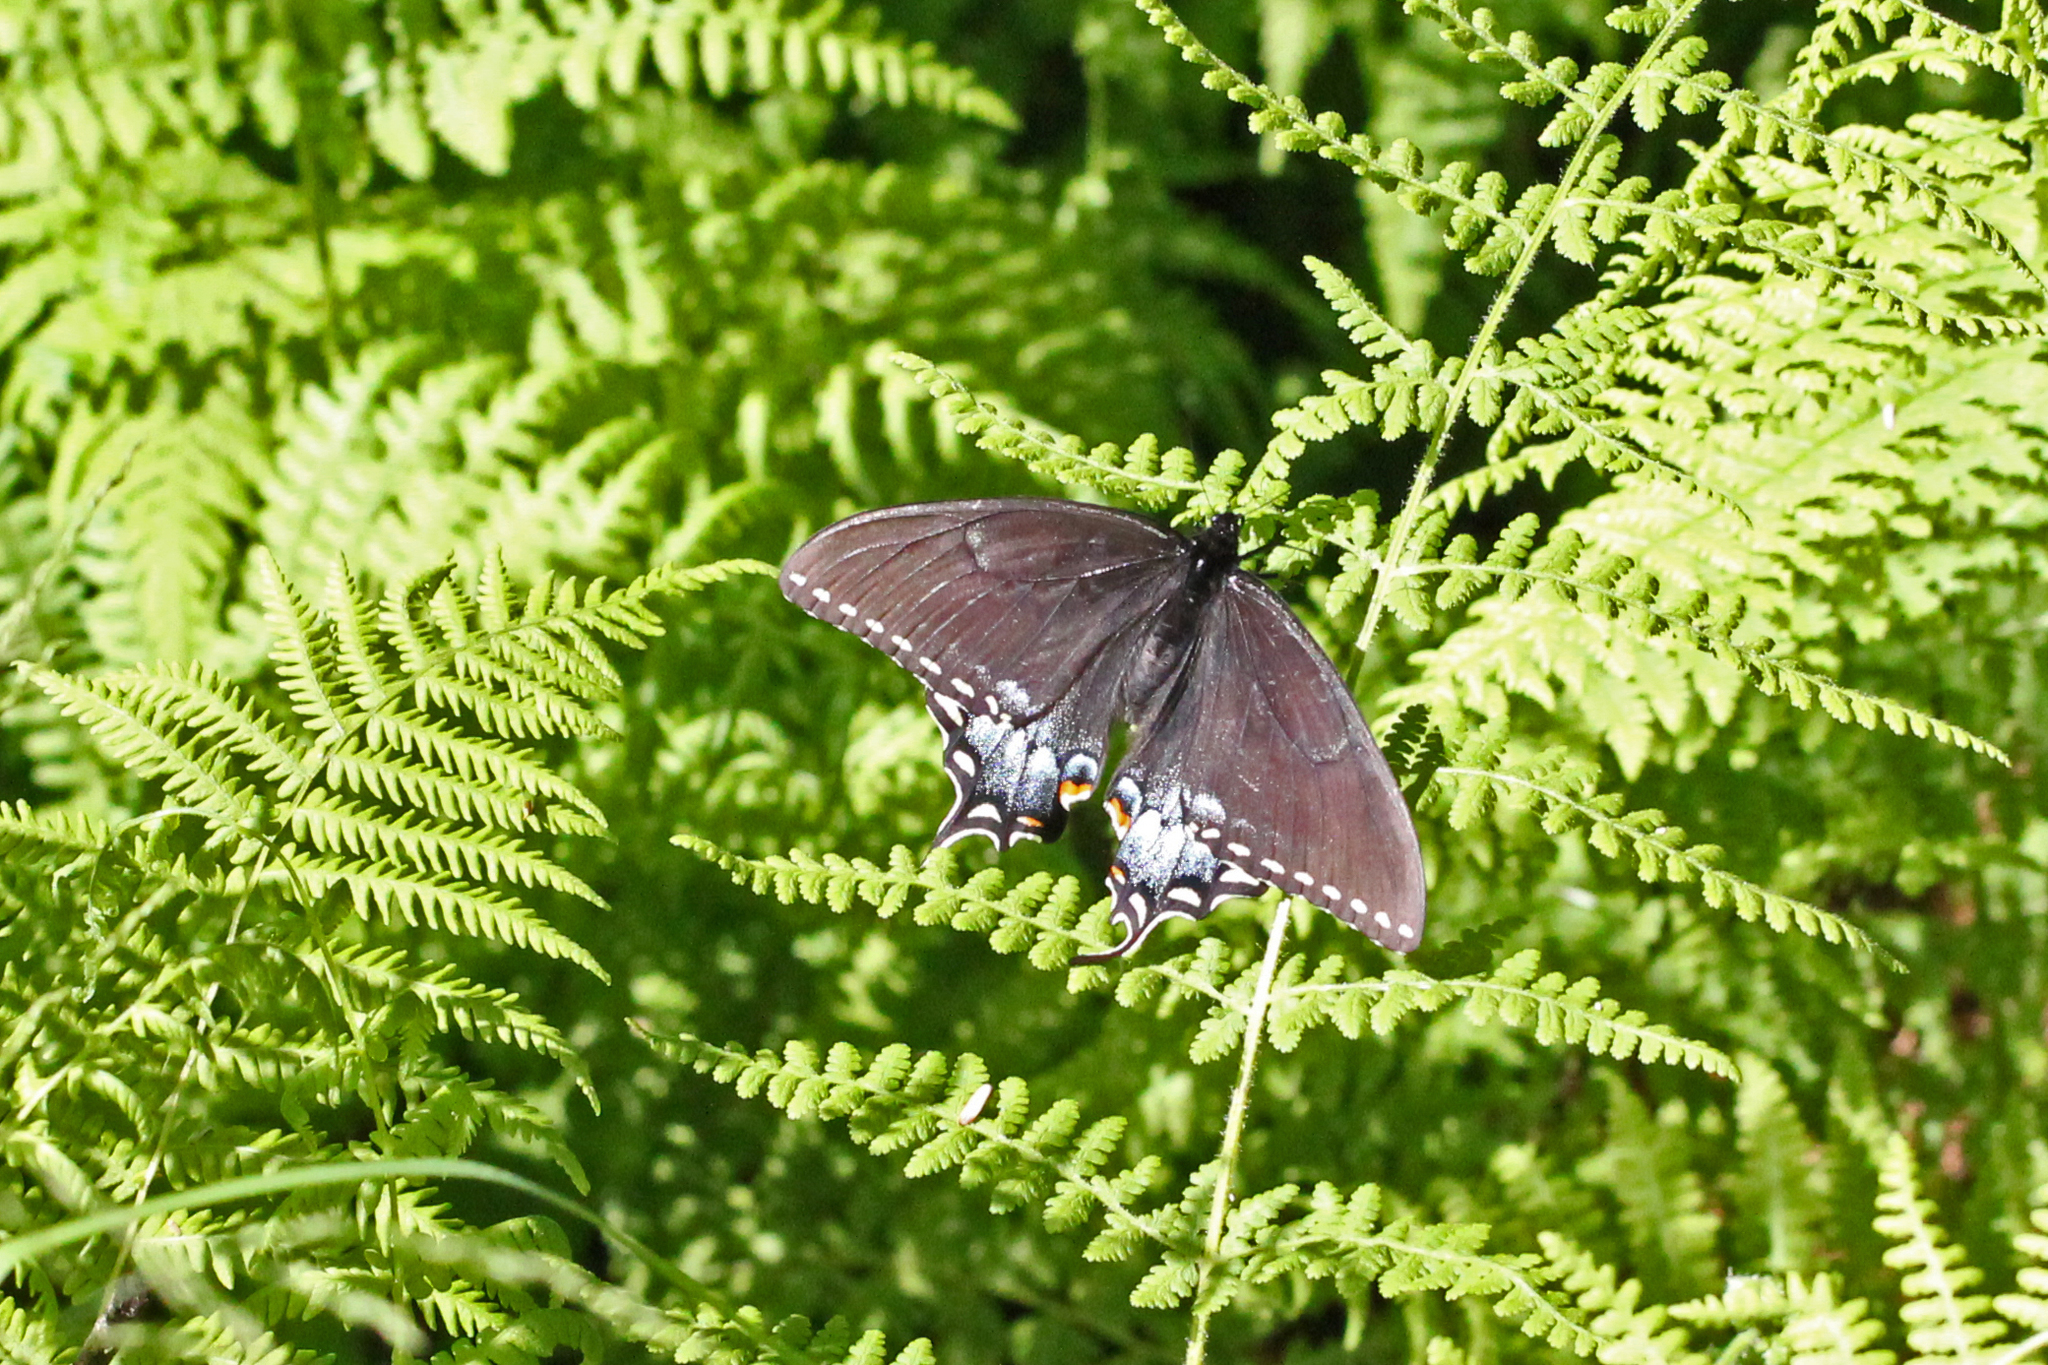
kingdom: Animalia
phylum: Arthropoda
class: Insecta
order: Lepidoptera
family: Papilionidae
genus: Papilio
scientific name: Papilio glaucus
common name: Tiger swallowtail
